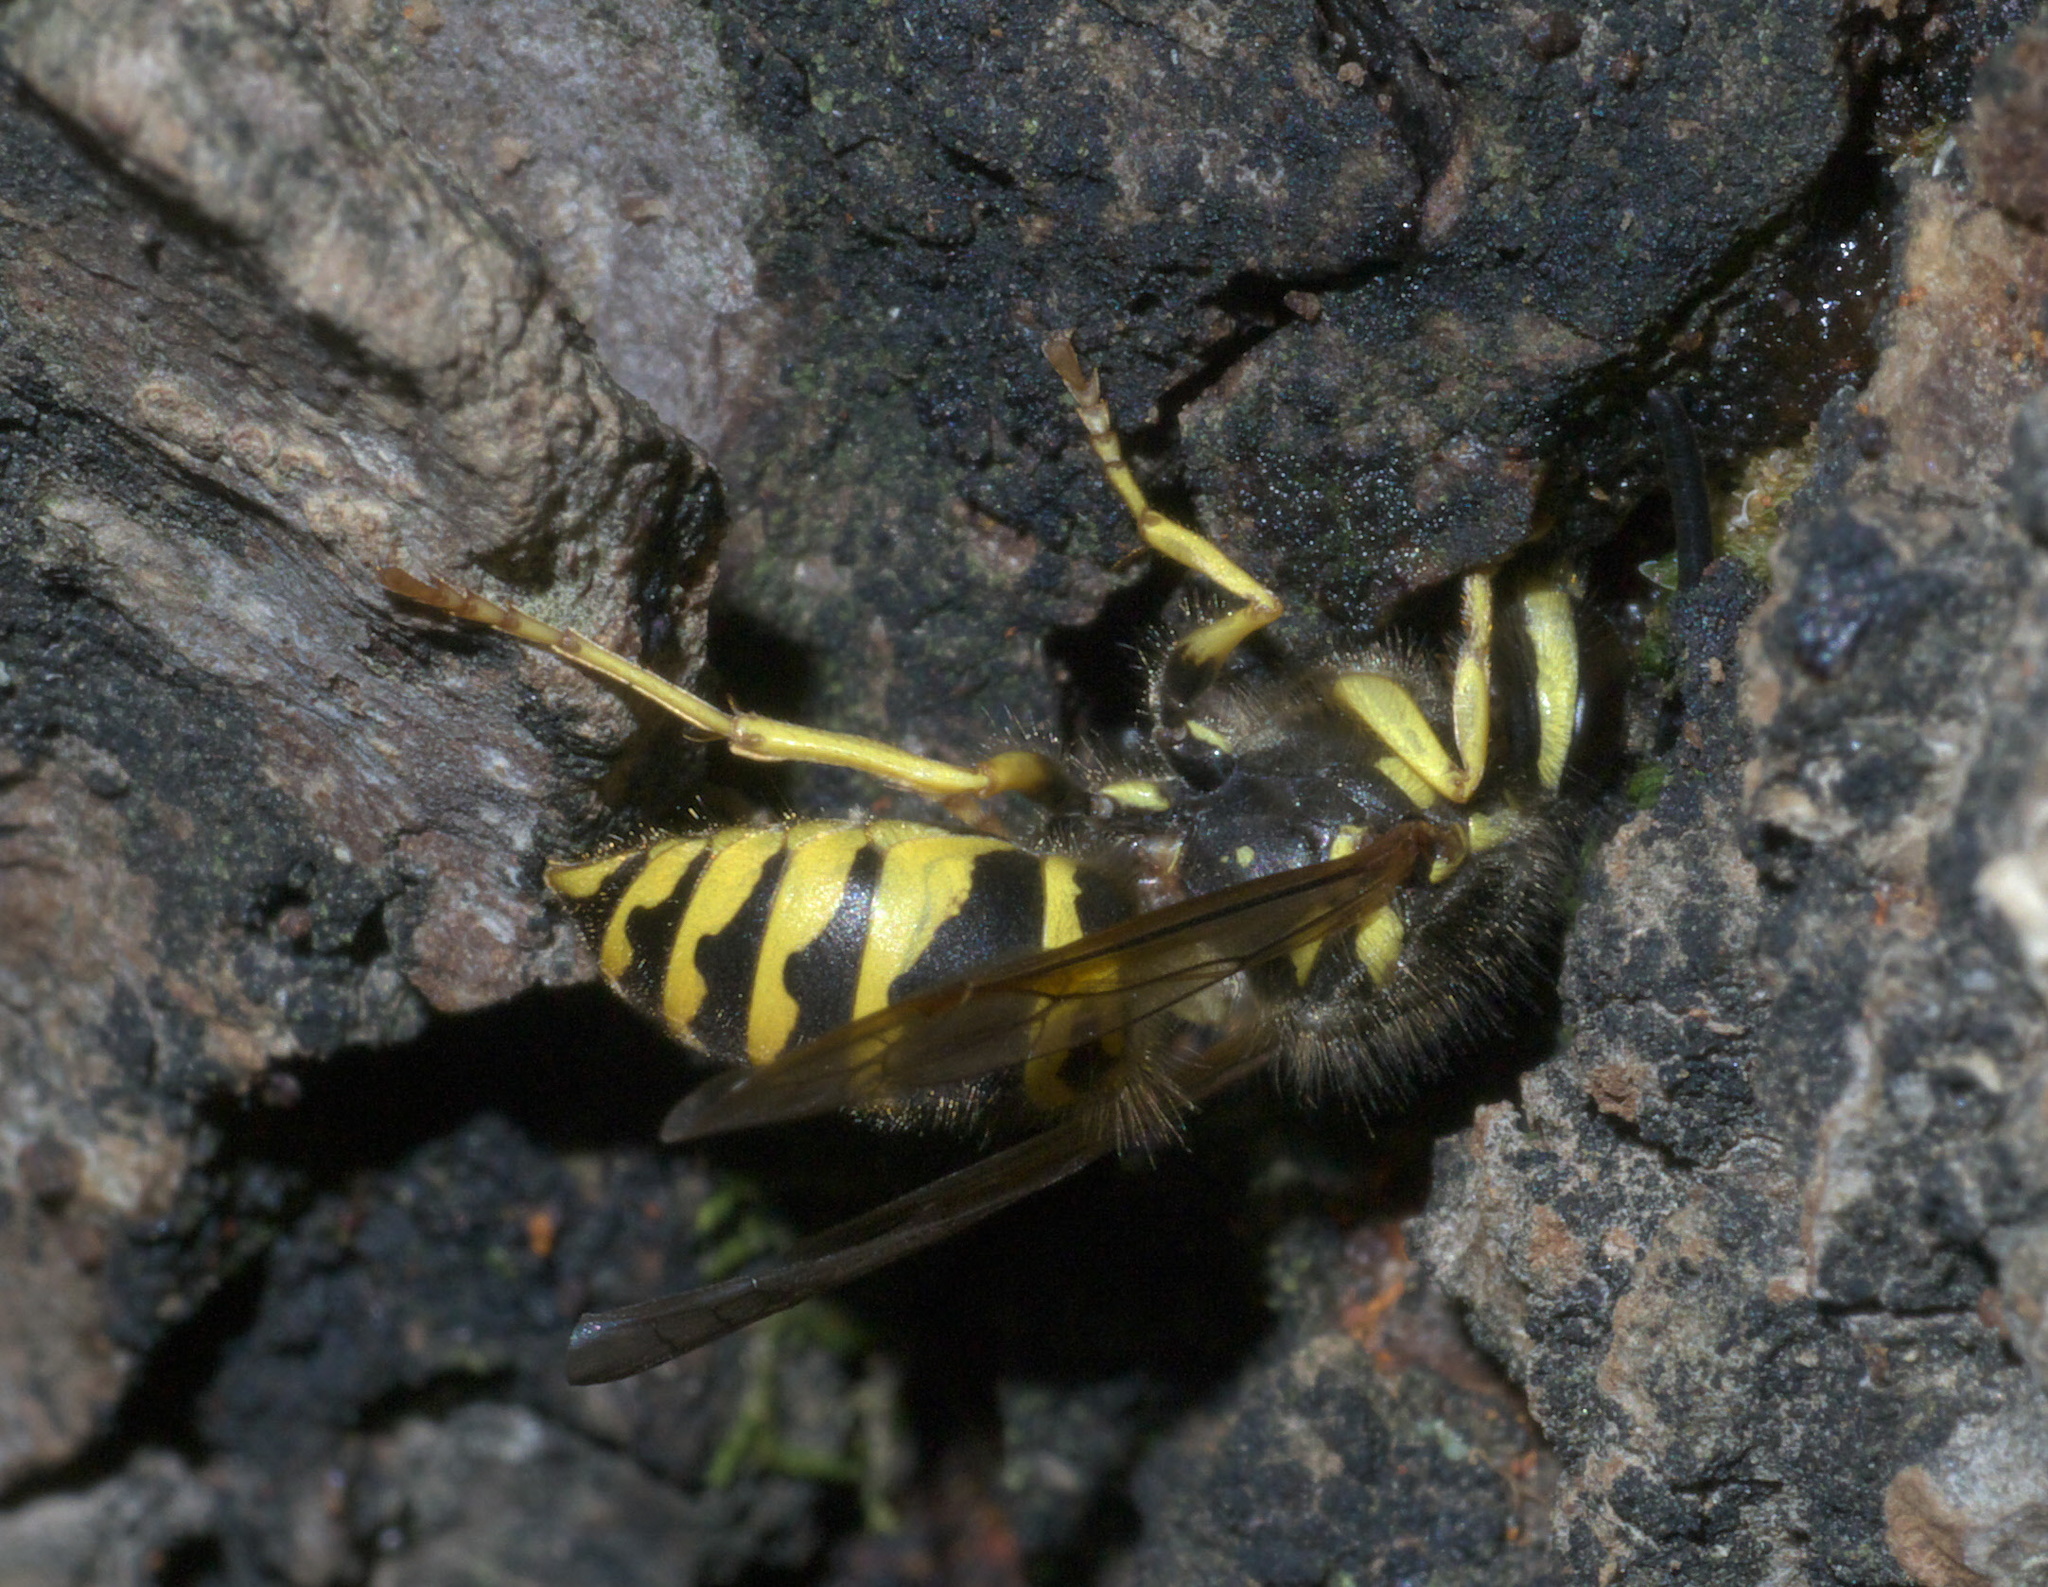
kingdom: Animalia
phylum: Arthropoda
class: Insecta
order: Hymenoptera
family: Vespidae
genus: Vespula
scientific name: Vespula maculifrons
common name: Eastern yellowjacket
